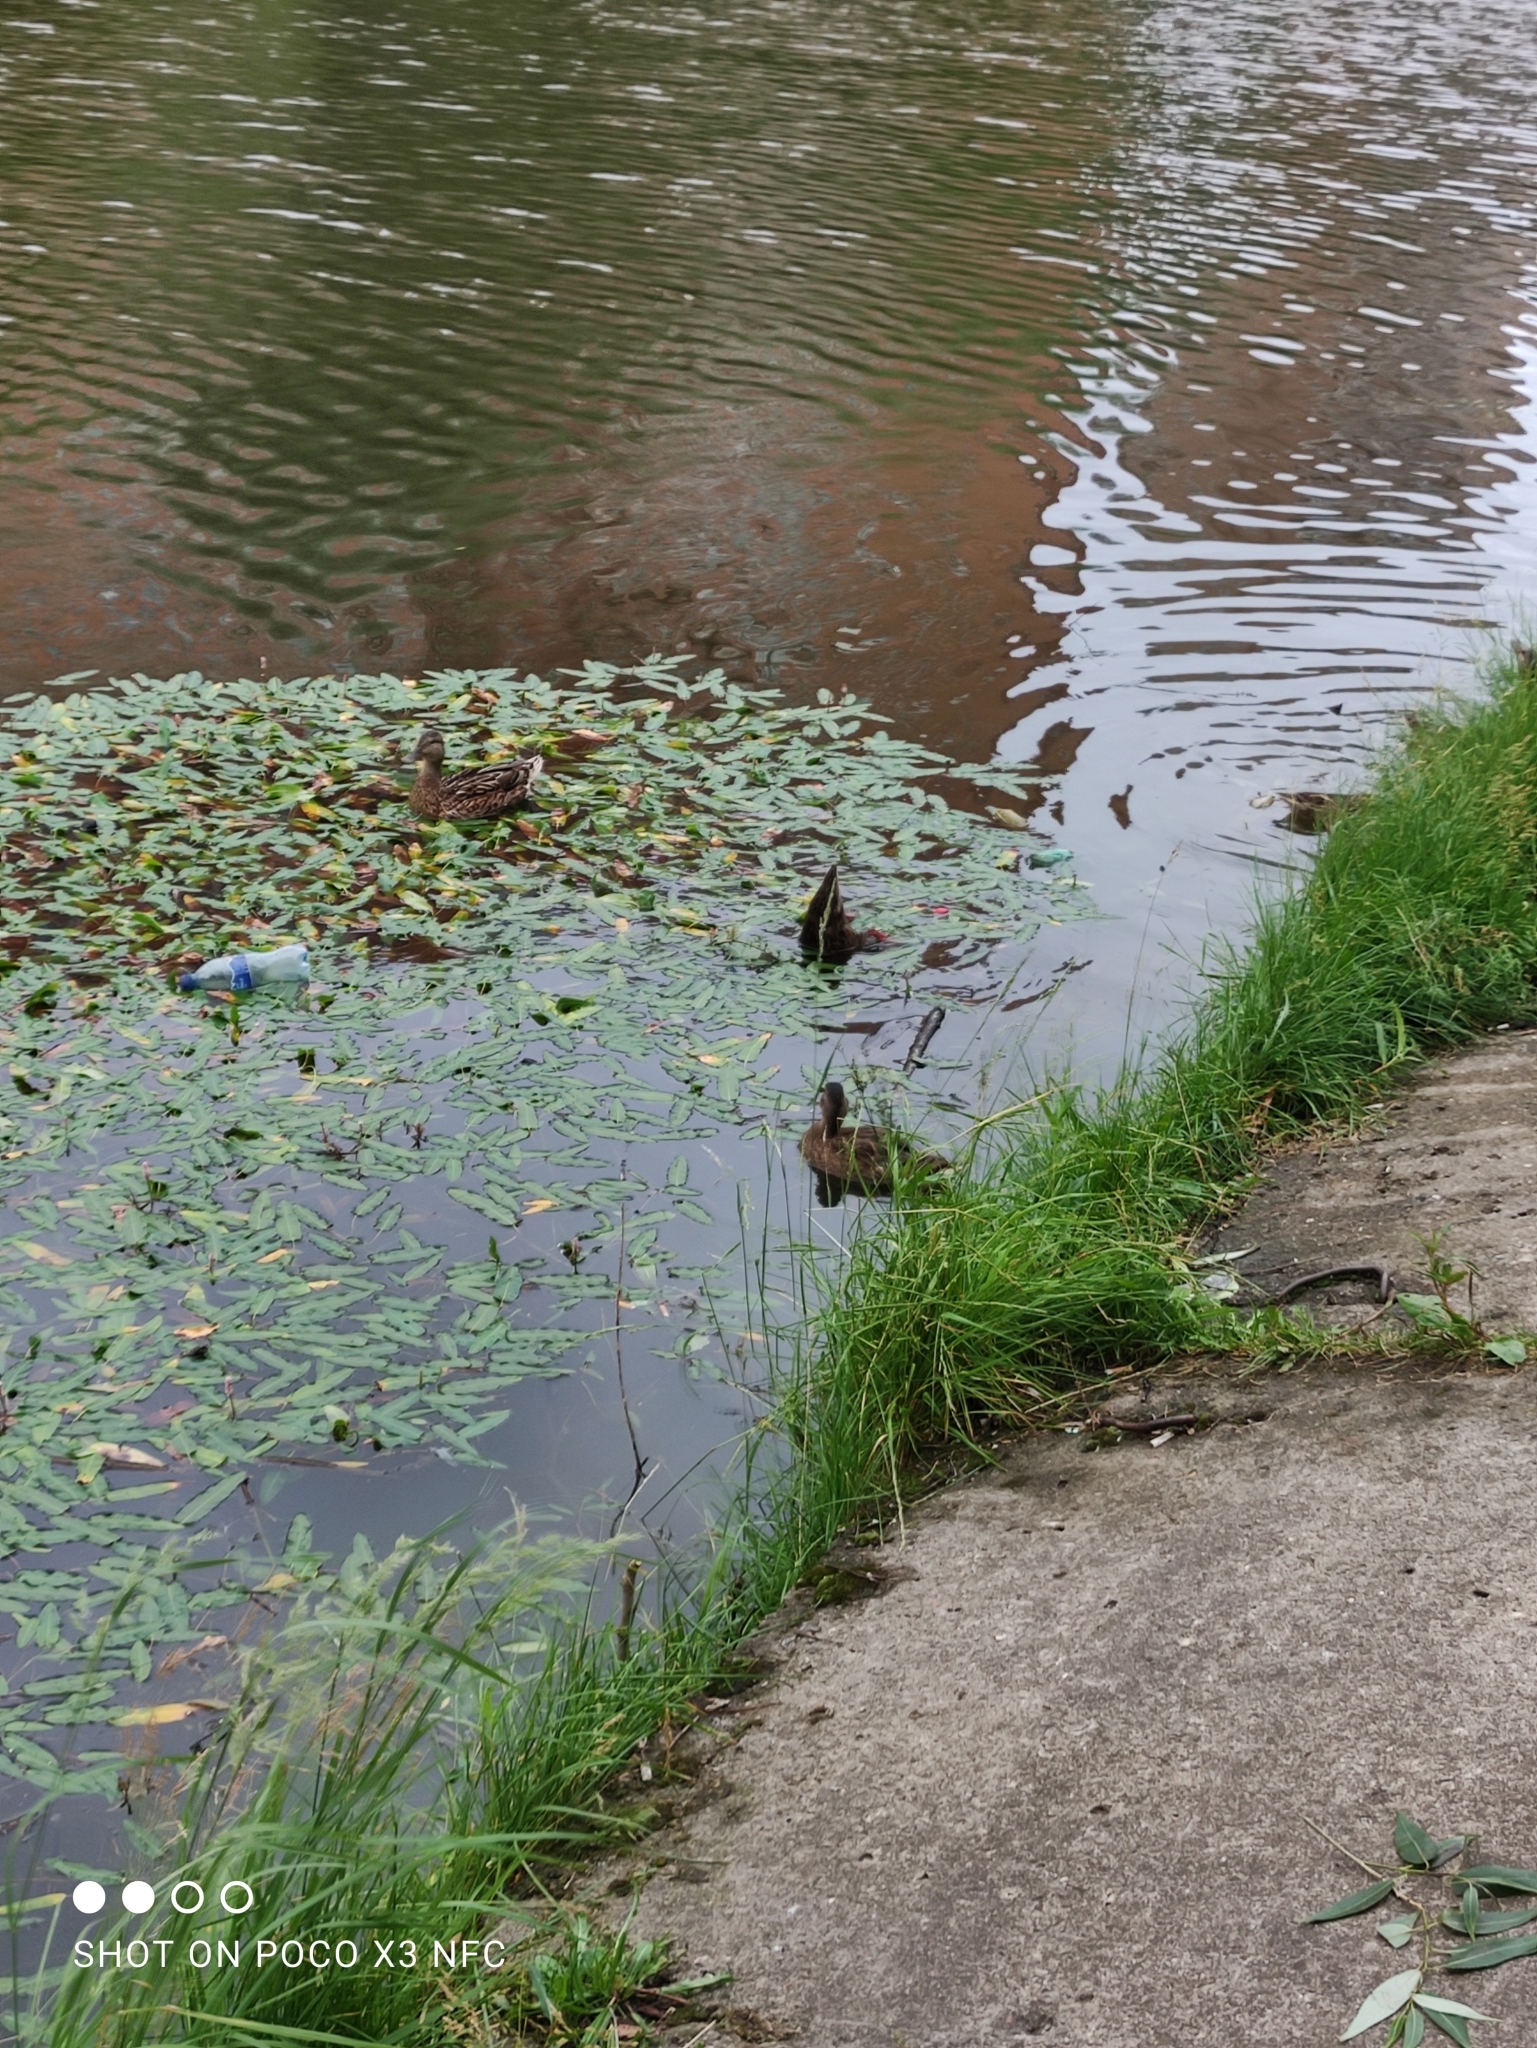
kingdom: Animalia
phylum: Chordata
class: Aves
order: Anseriformes
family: Anatidae
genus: Anas
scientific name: Anas platyrhynchos
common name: Mallard
